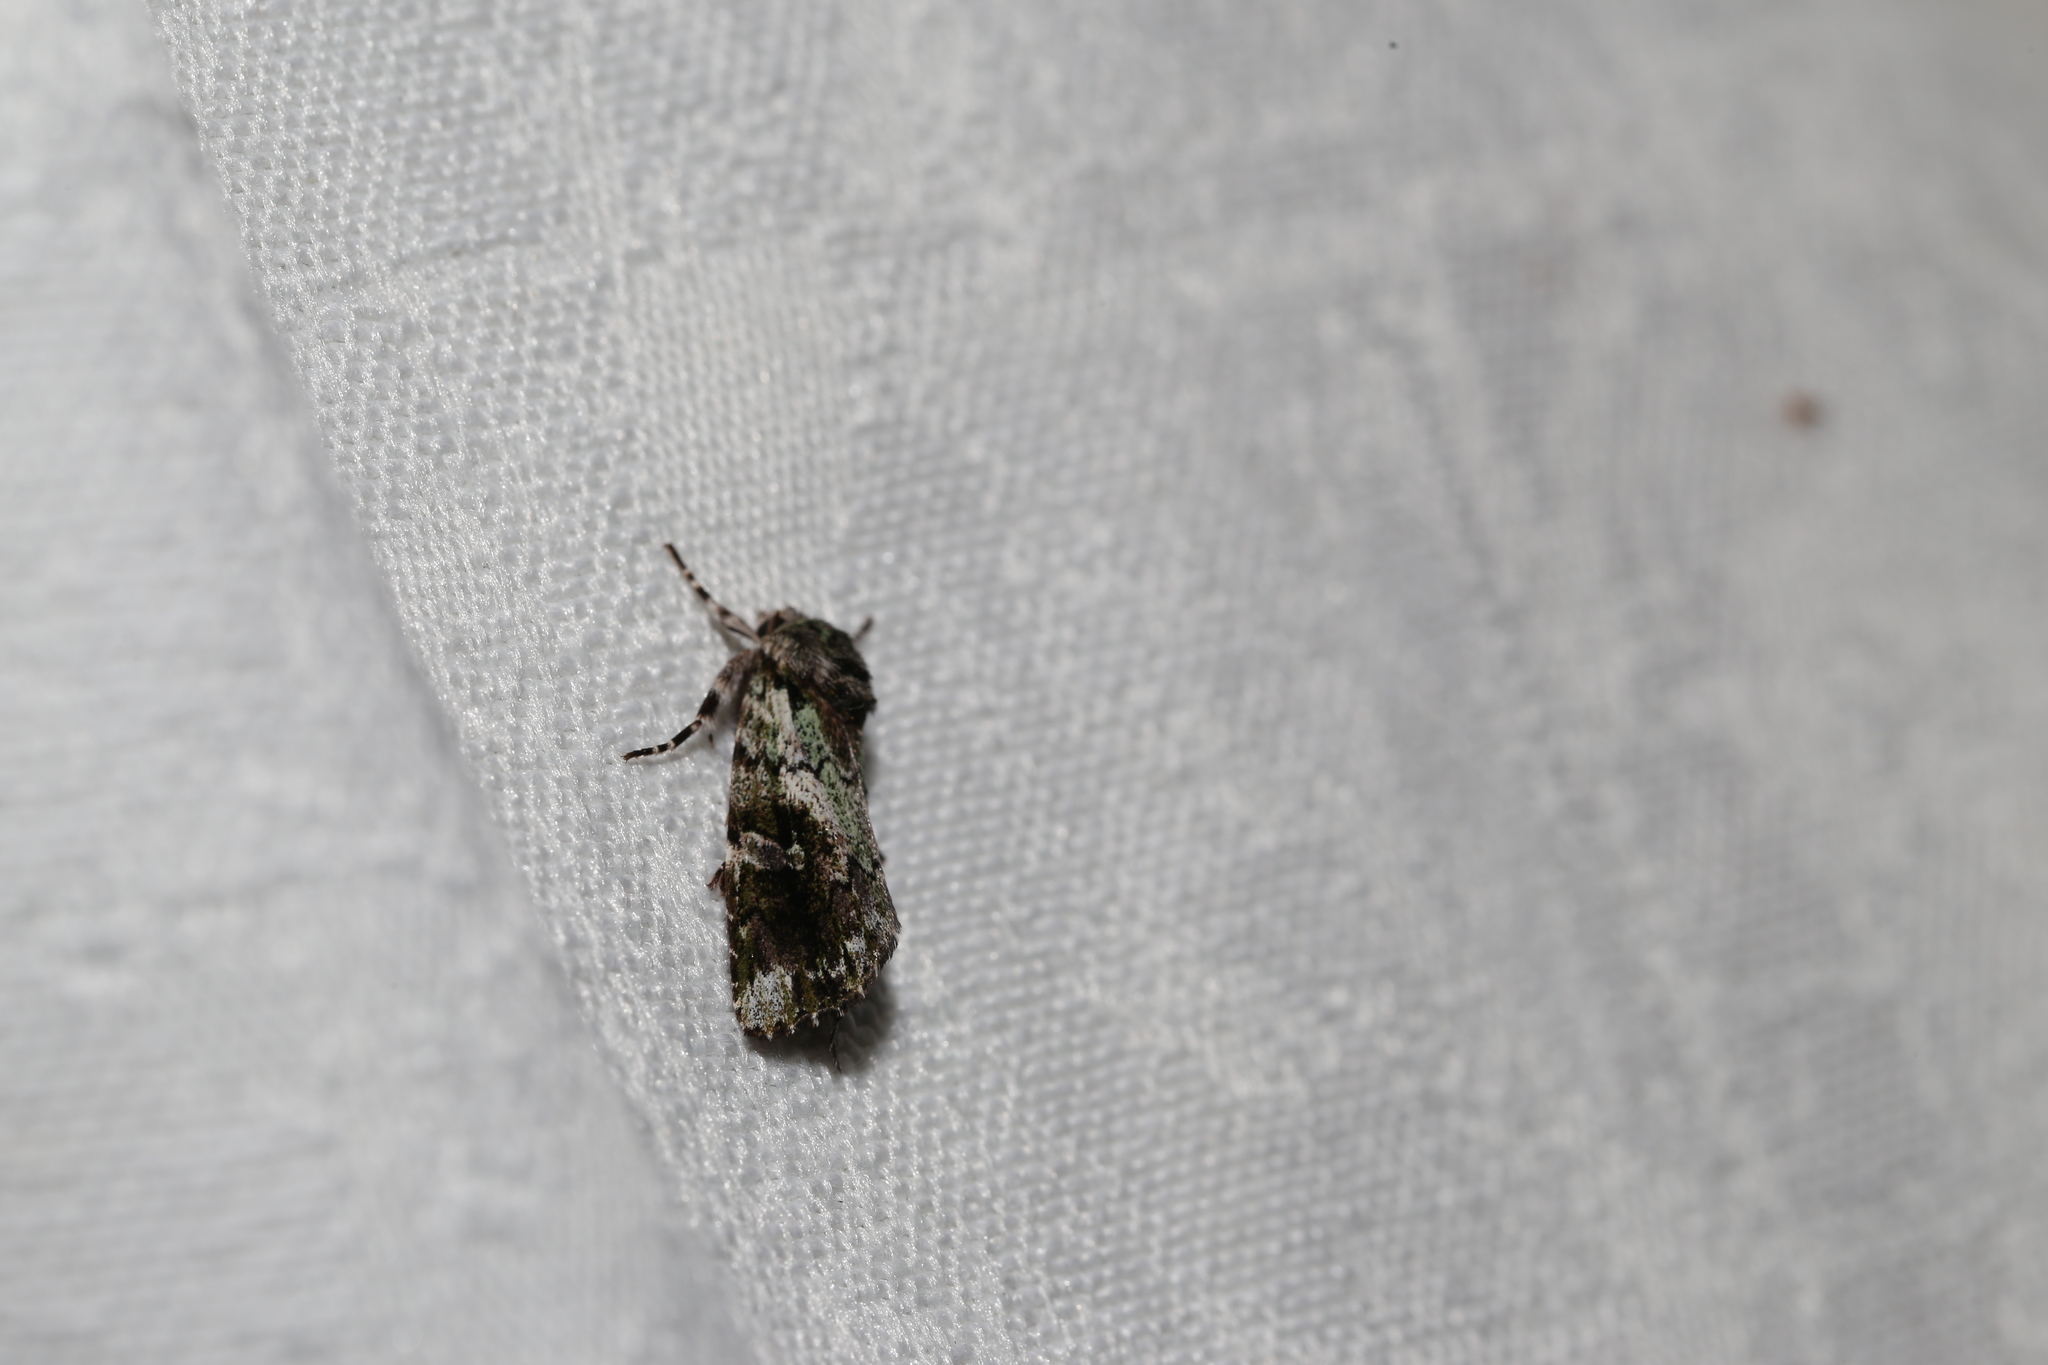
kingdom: Animalia
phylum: Arthropoda
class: Insecta
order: Lepidoptera
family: Noctuidae
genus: Prometopus
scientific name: Prometopus inassueta
